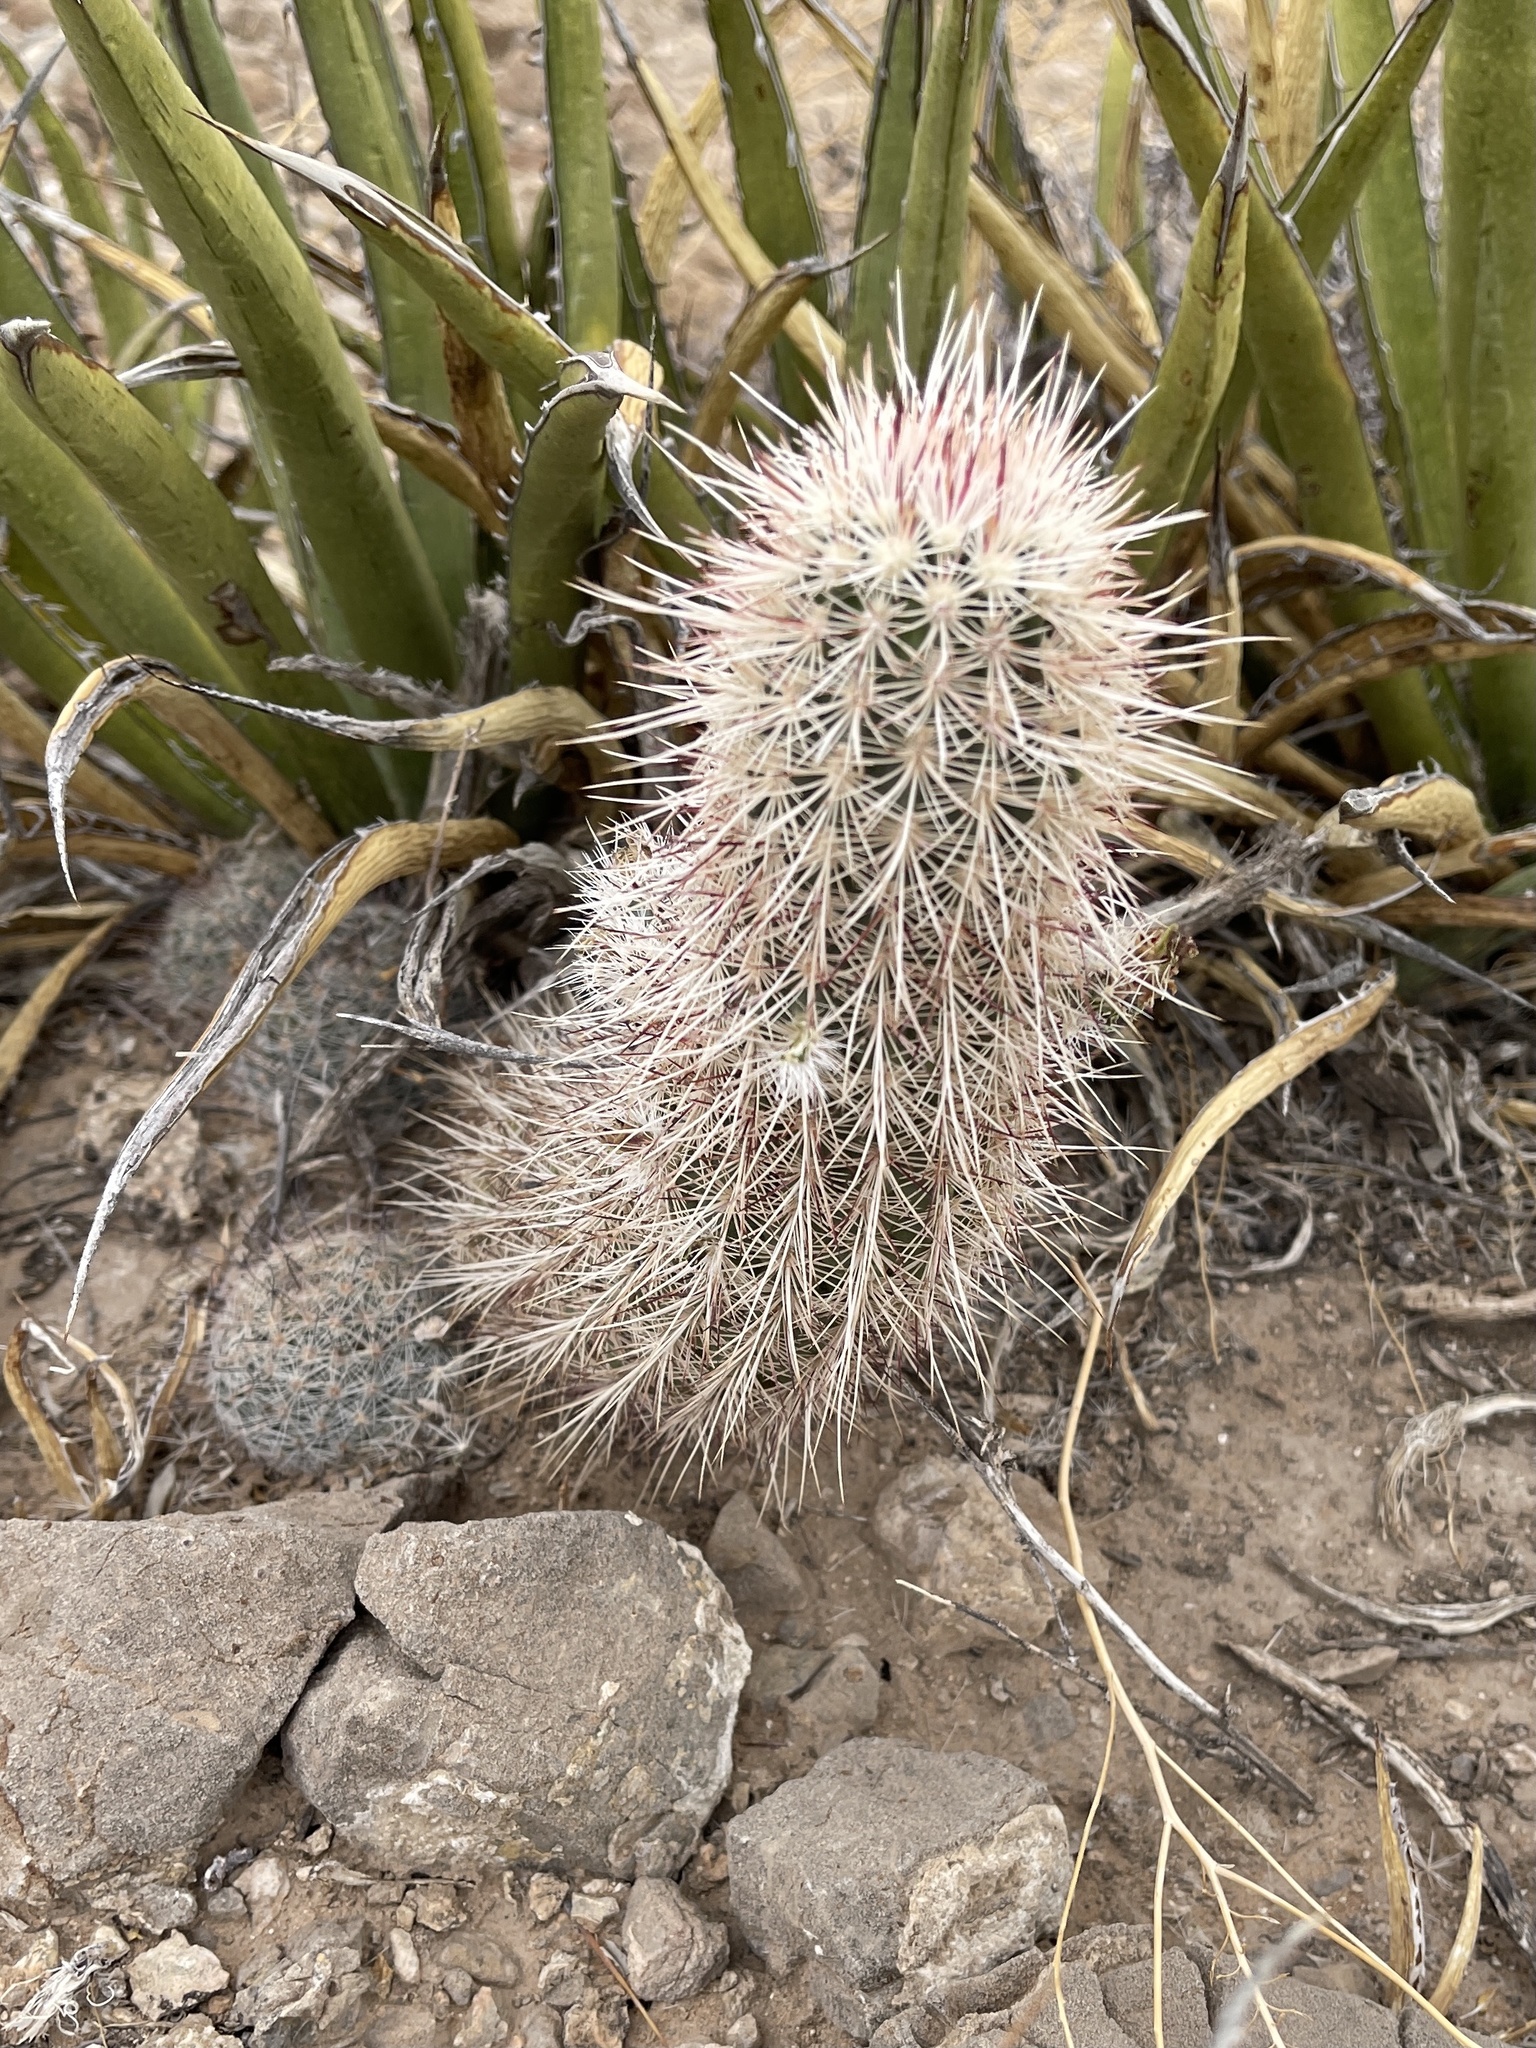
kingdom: Plantae
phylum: Tracheophyta
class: Magnoliopsida
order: Caryophyllales
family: Cactaceae
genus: Echinocereus
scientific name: Echinocereus viridiflorus
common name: Nylon hedgehog cactus
